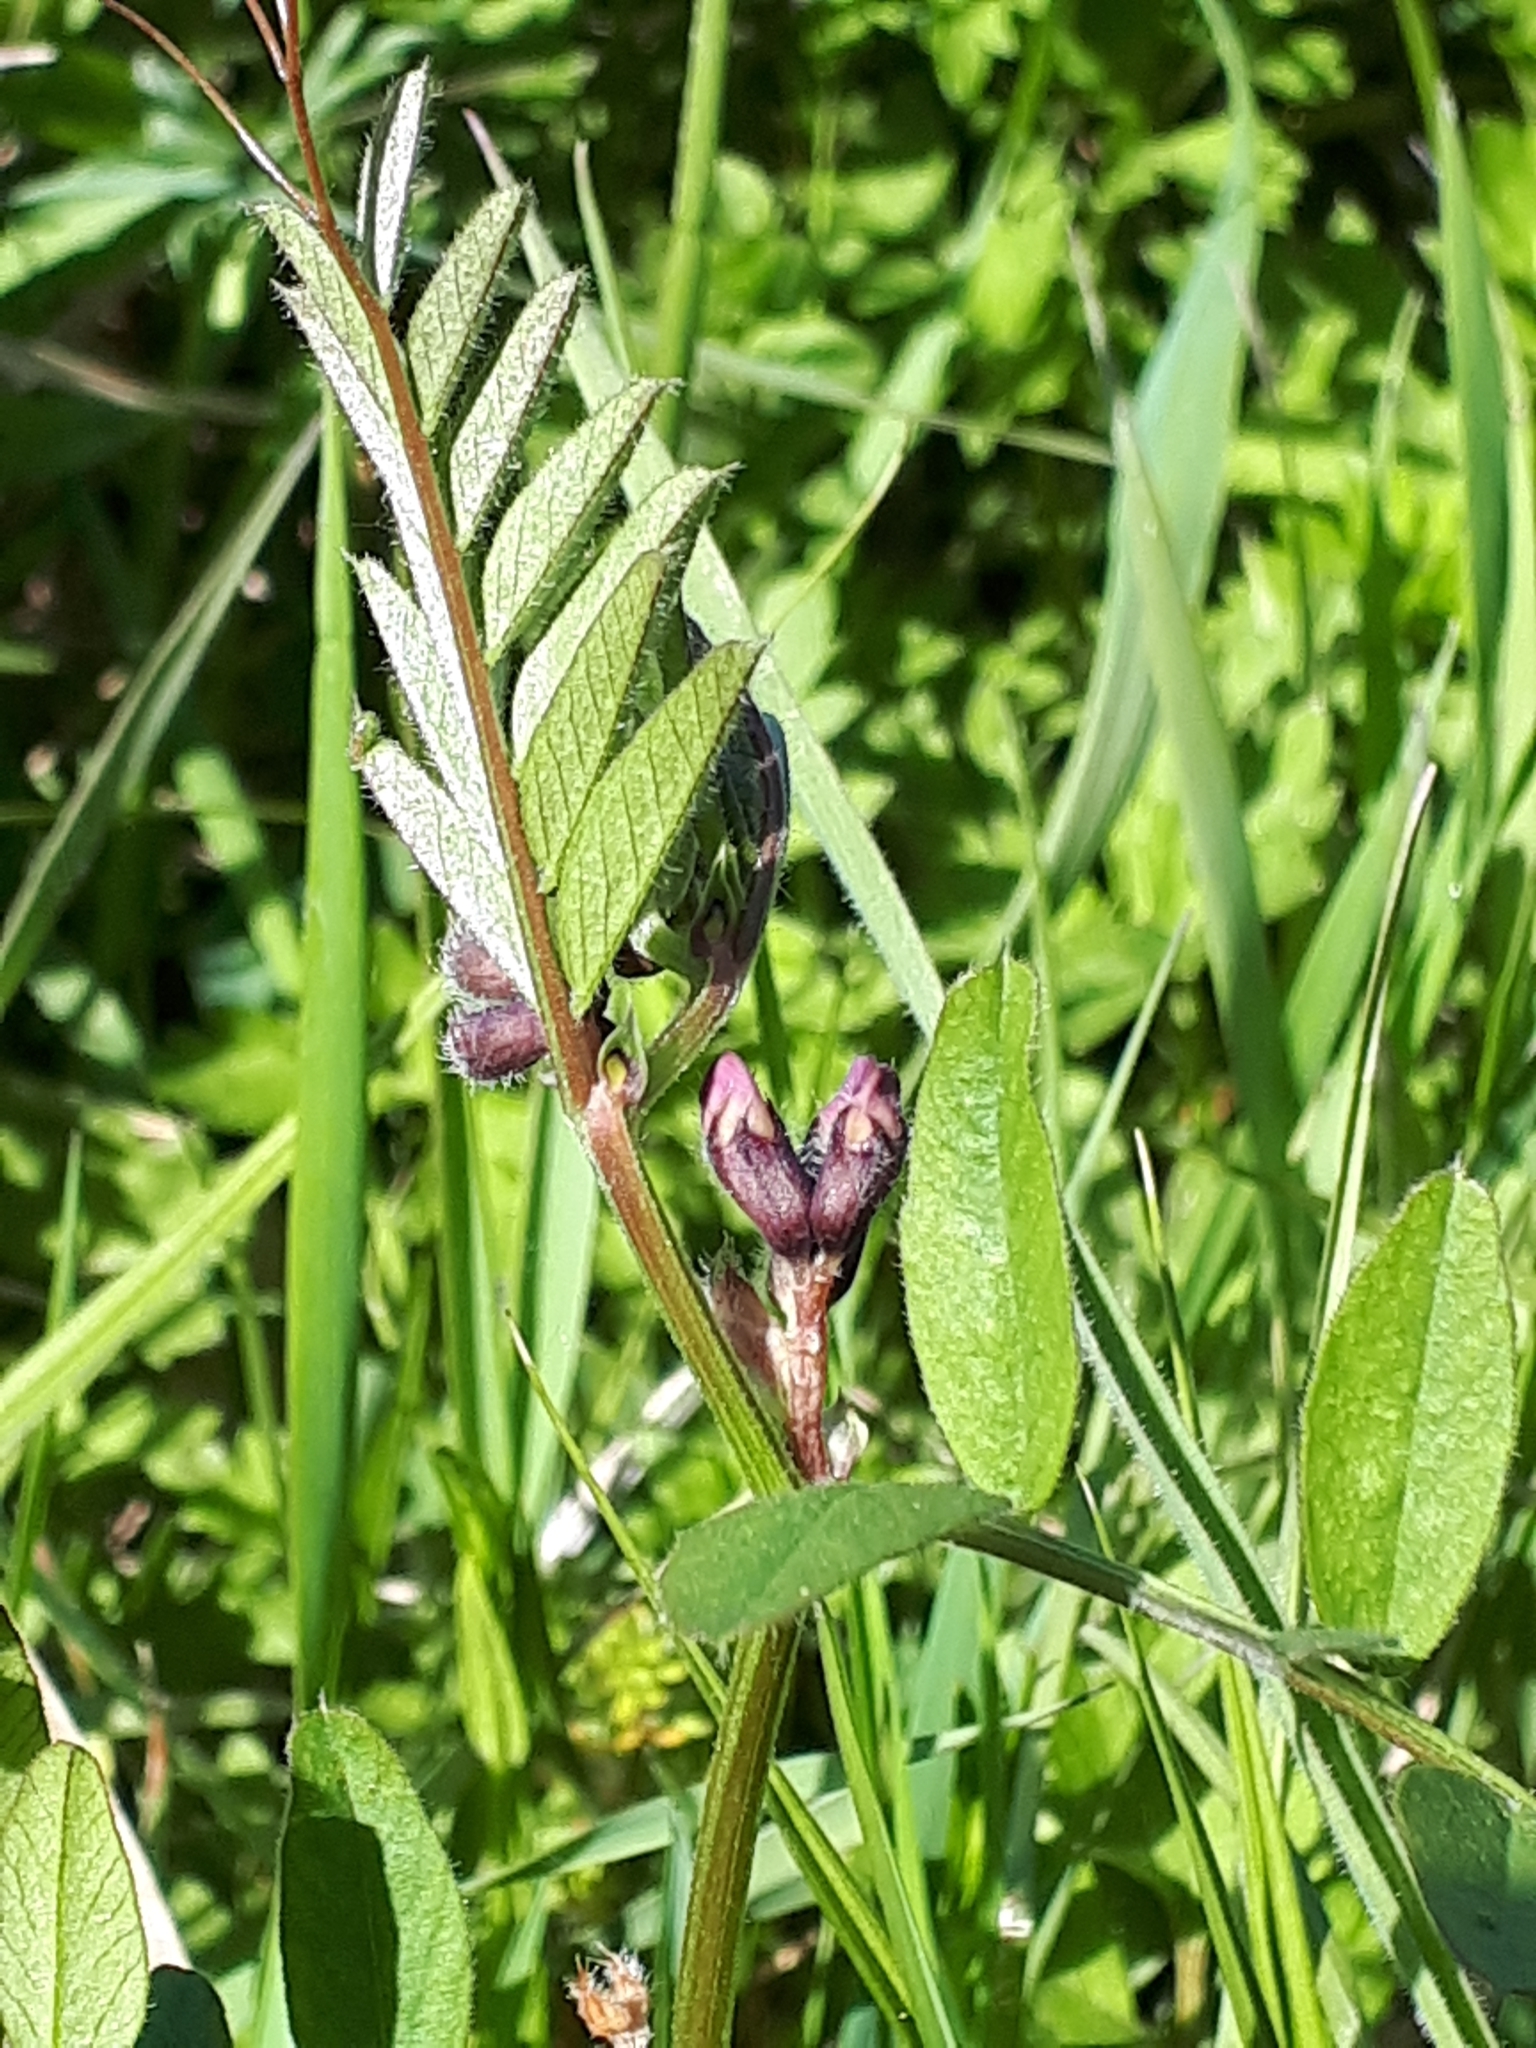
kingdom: Plantae
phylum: Tracheophyta
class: Magnoliopsida
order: Fabales
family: Fabaceae
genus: Vicia
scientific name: Vicia sepium
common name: Bush vetch
